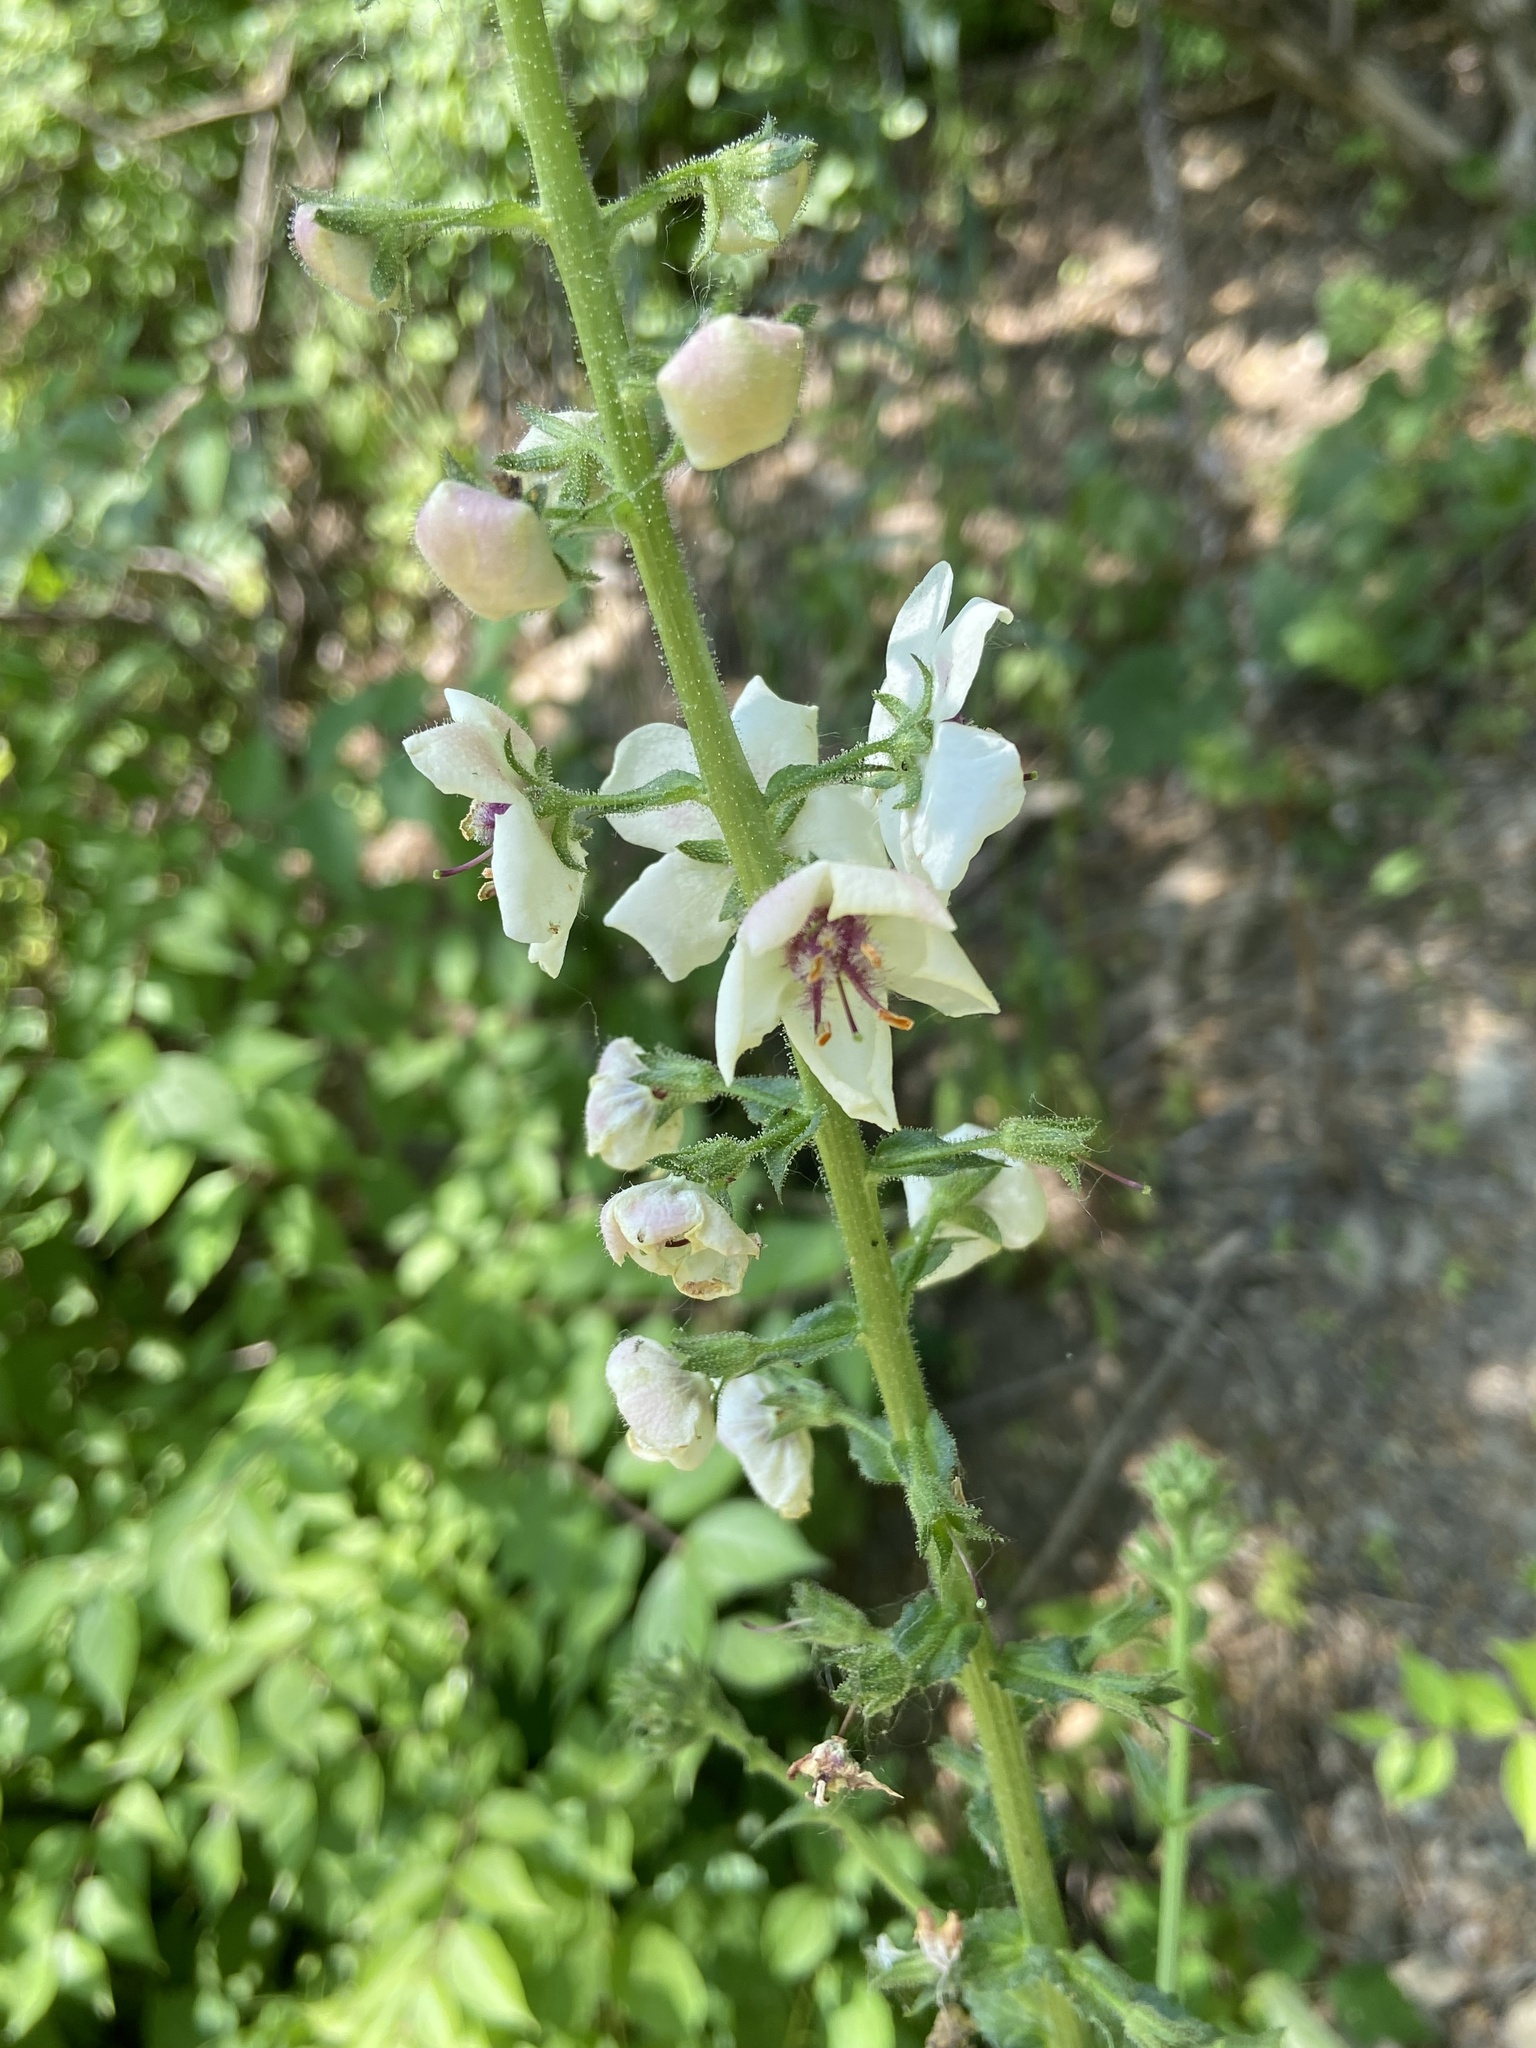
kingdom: Plantae
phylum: Tracheophyta
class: Magnoliopsida
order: Lamiales
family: Scrophulariaceae
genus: Verbascum
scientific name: Verbascum blattaria
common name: Moth mullein
